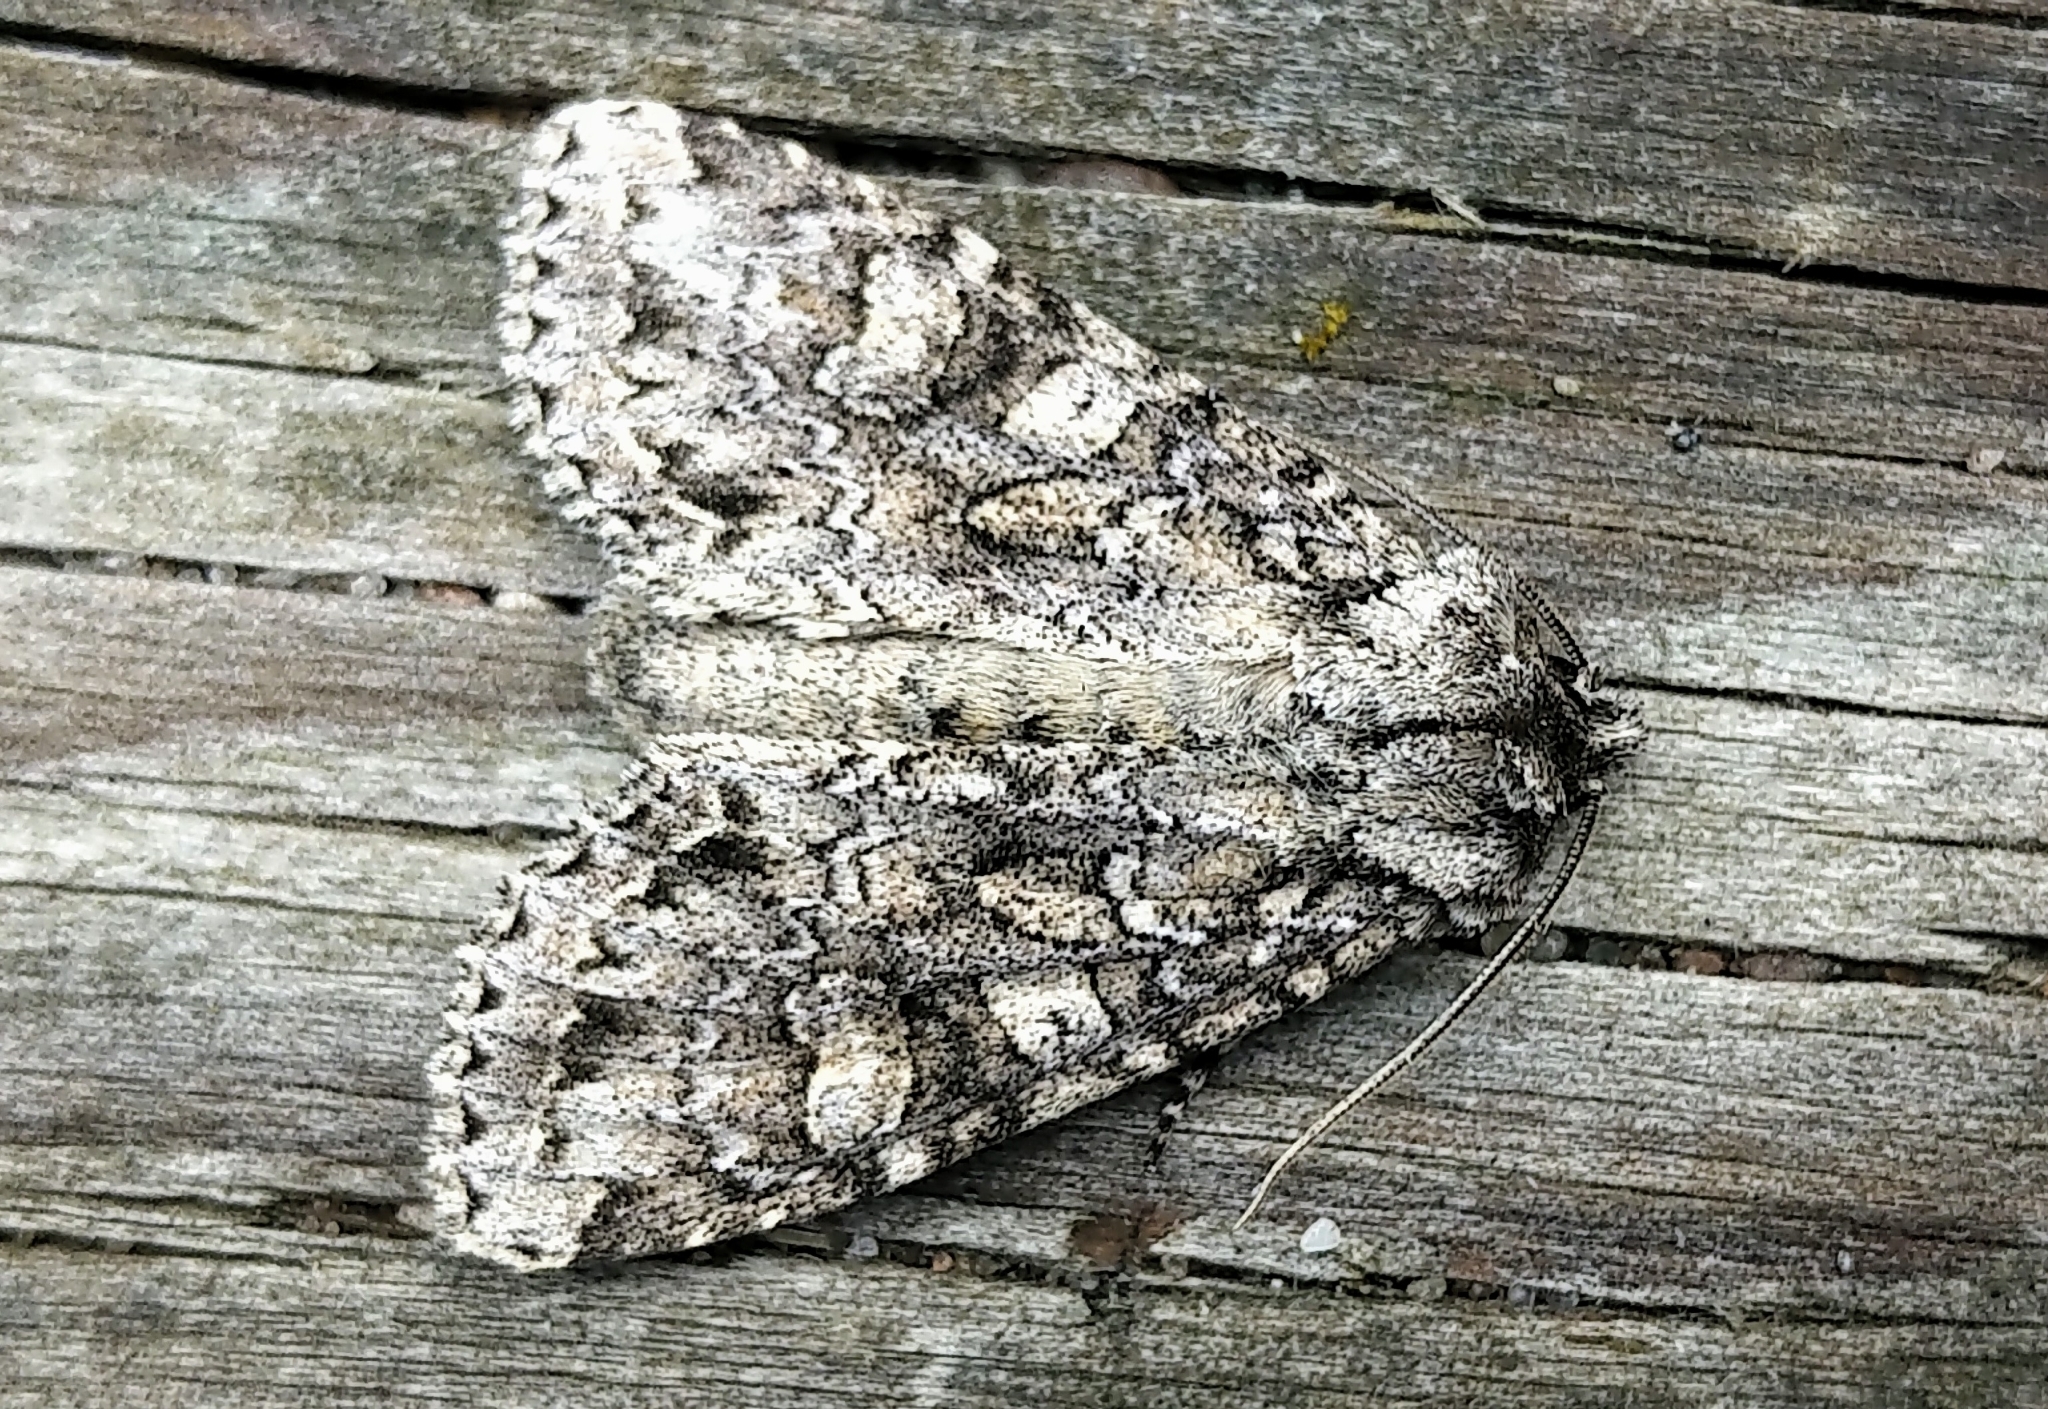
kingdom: Animalia
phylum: Arthropoda
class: Insecta
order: Lepidoptera
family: Noctuidae
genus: Polia
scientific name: Polia imbrifera
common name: Cloudy arches moth
